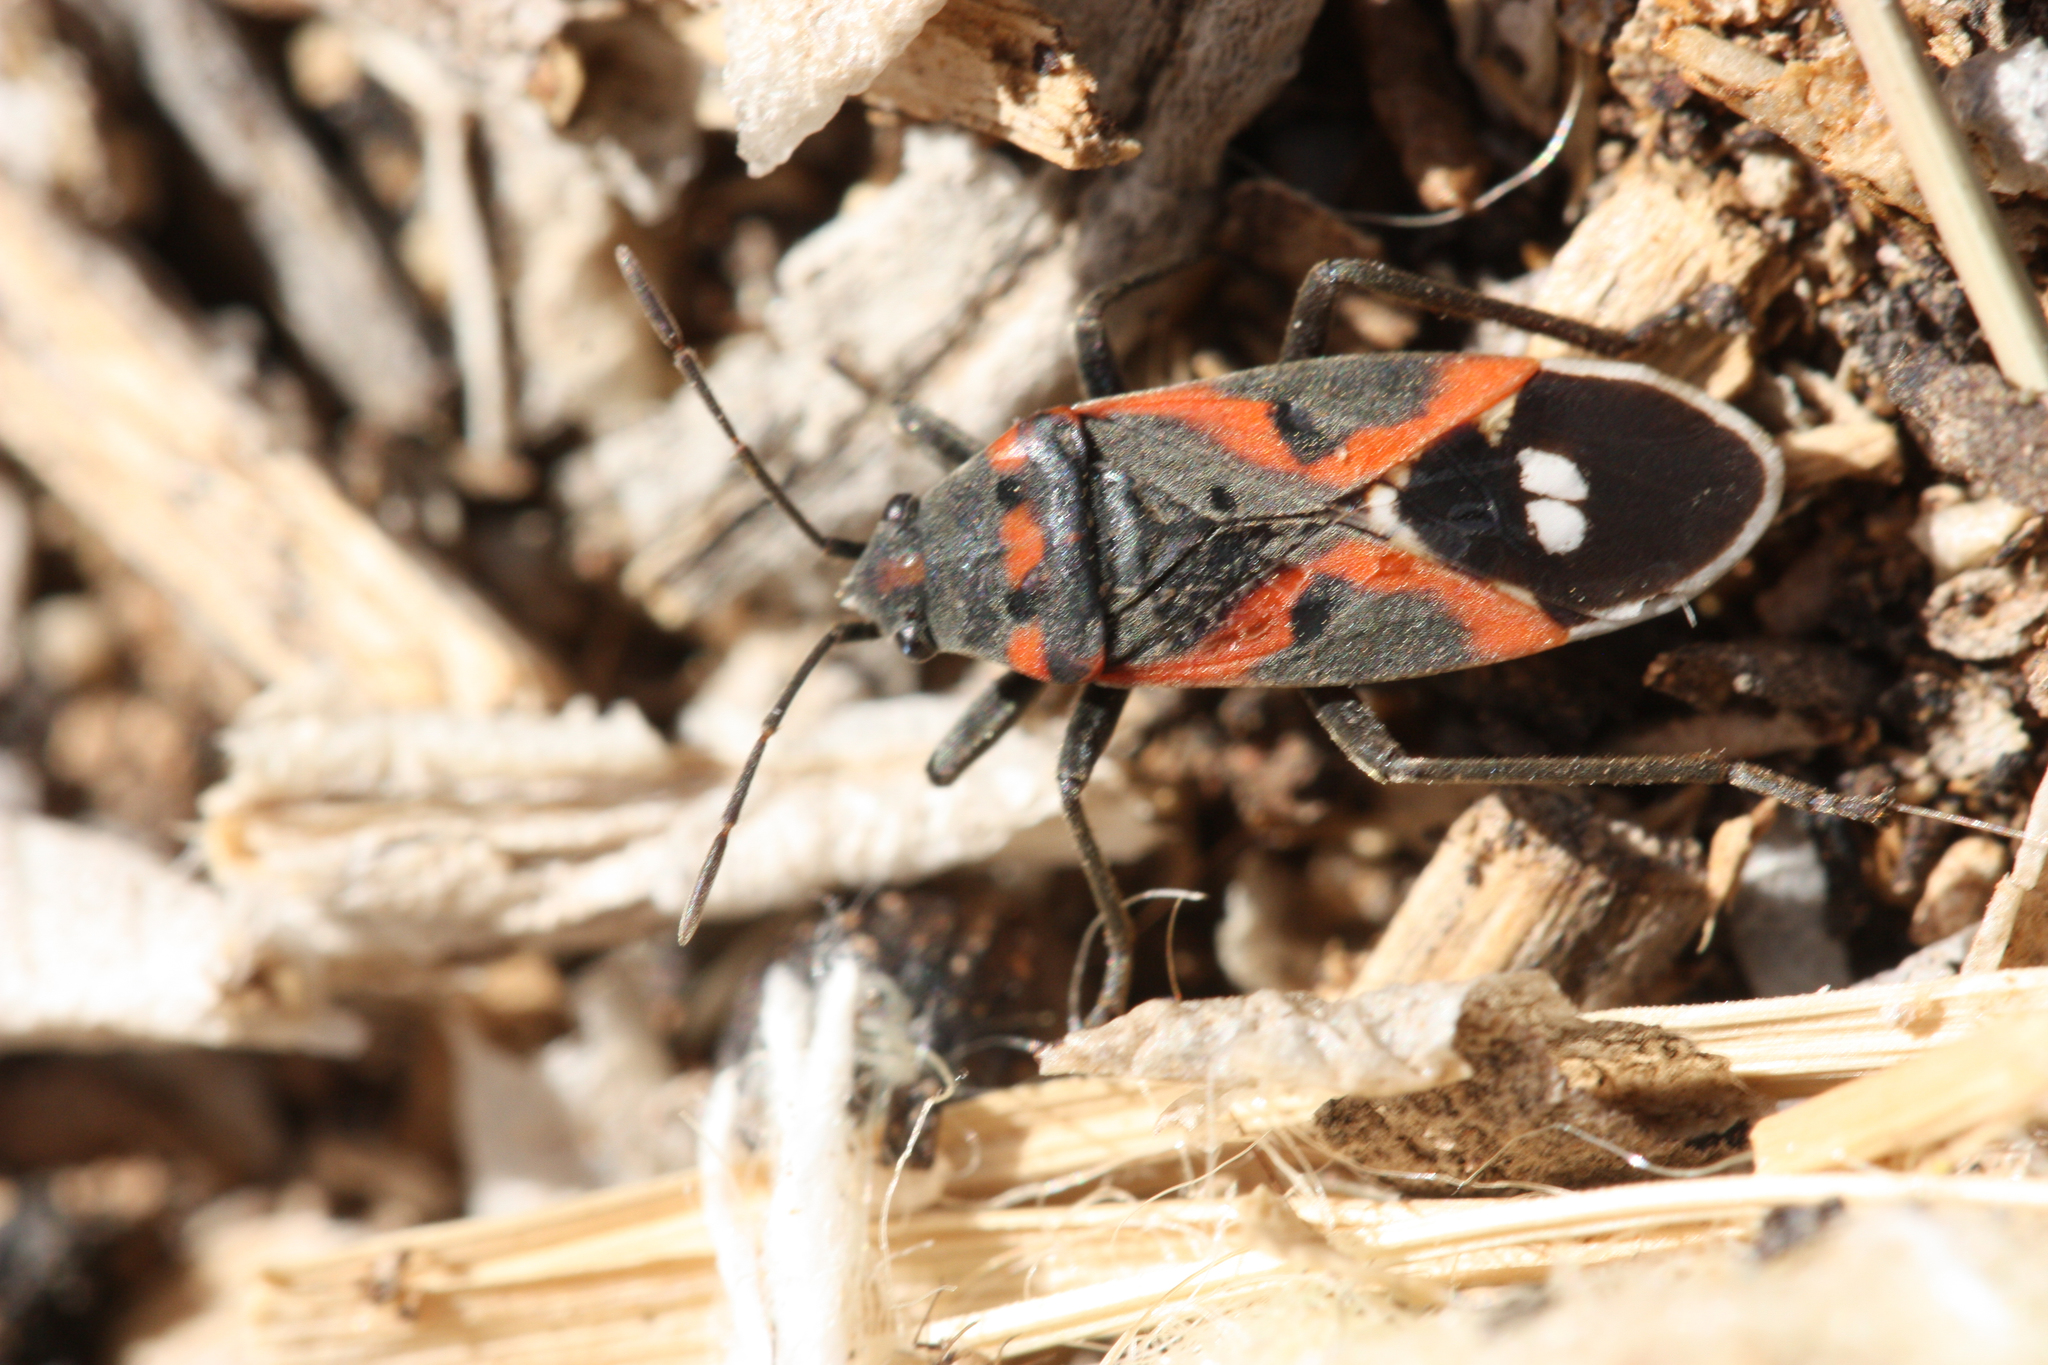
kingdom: Animalia
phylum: Arthropoda
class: Insecta
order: Hemiptera
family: Lygaeidae
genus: Lygaeus
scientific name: Lygaeus kalmii
